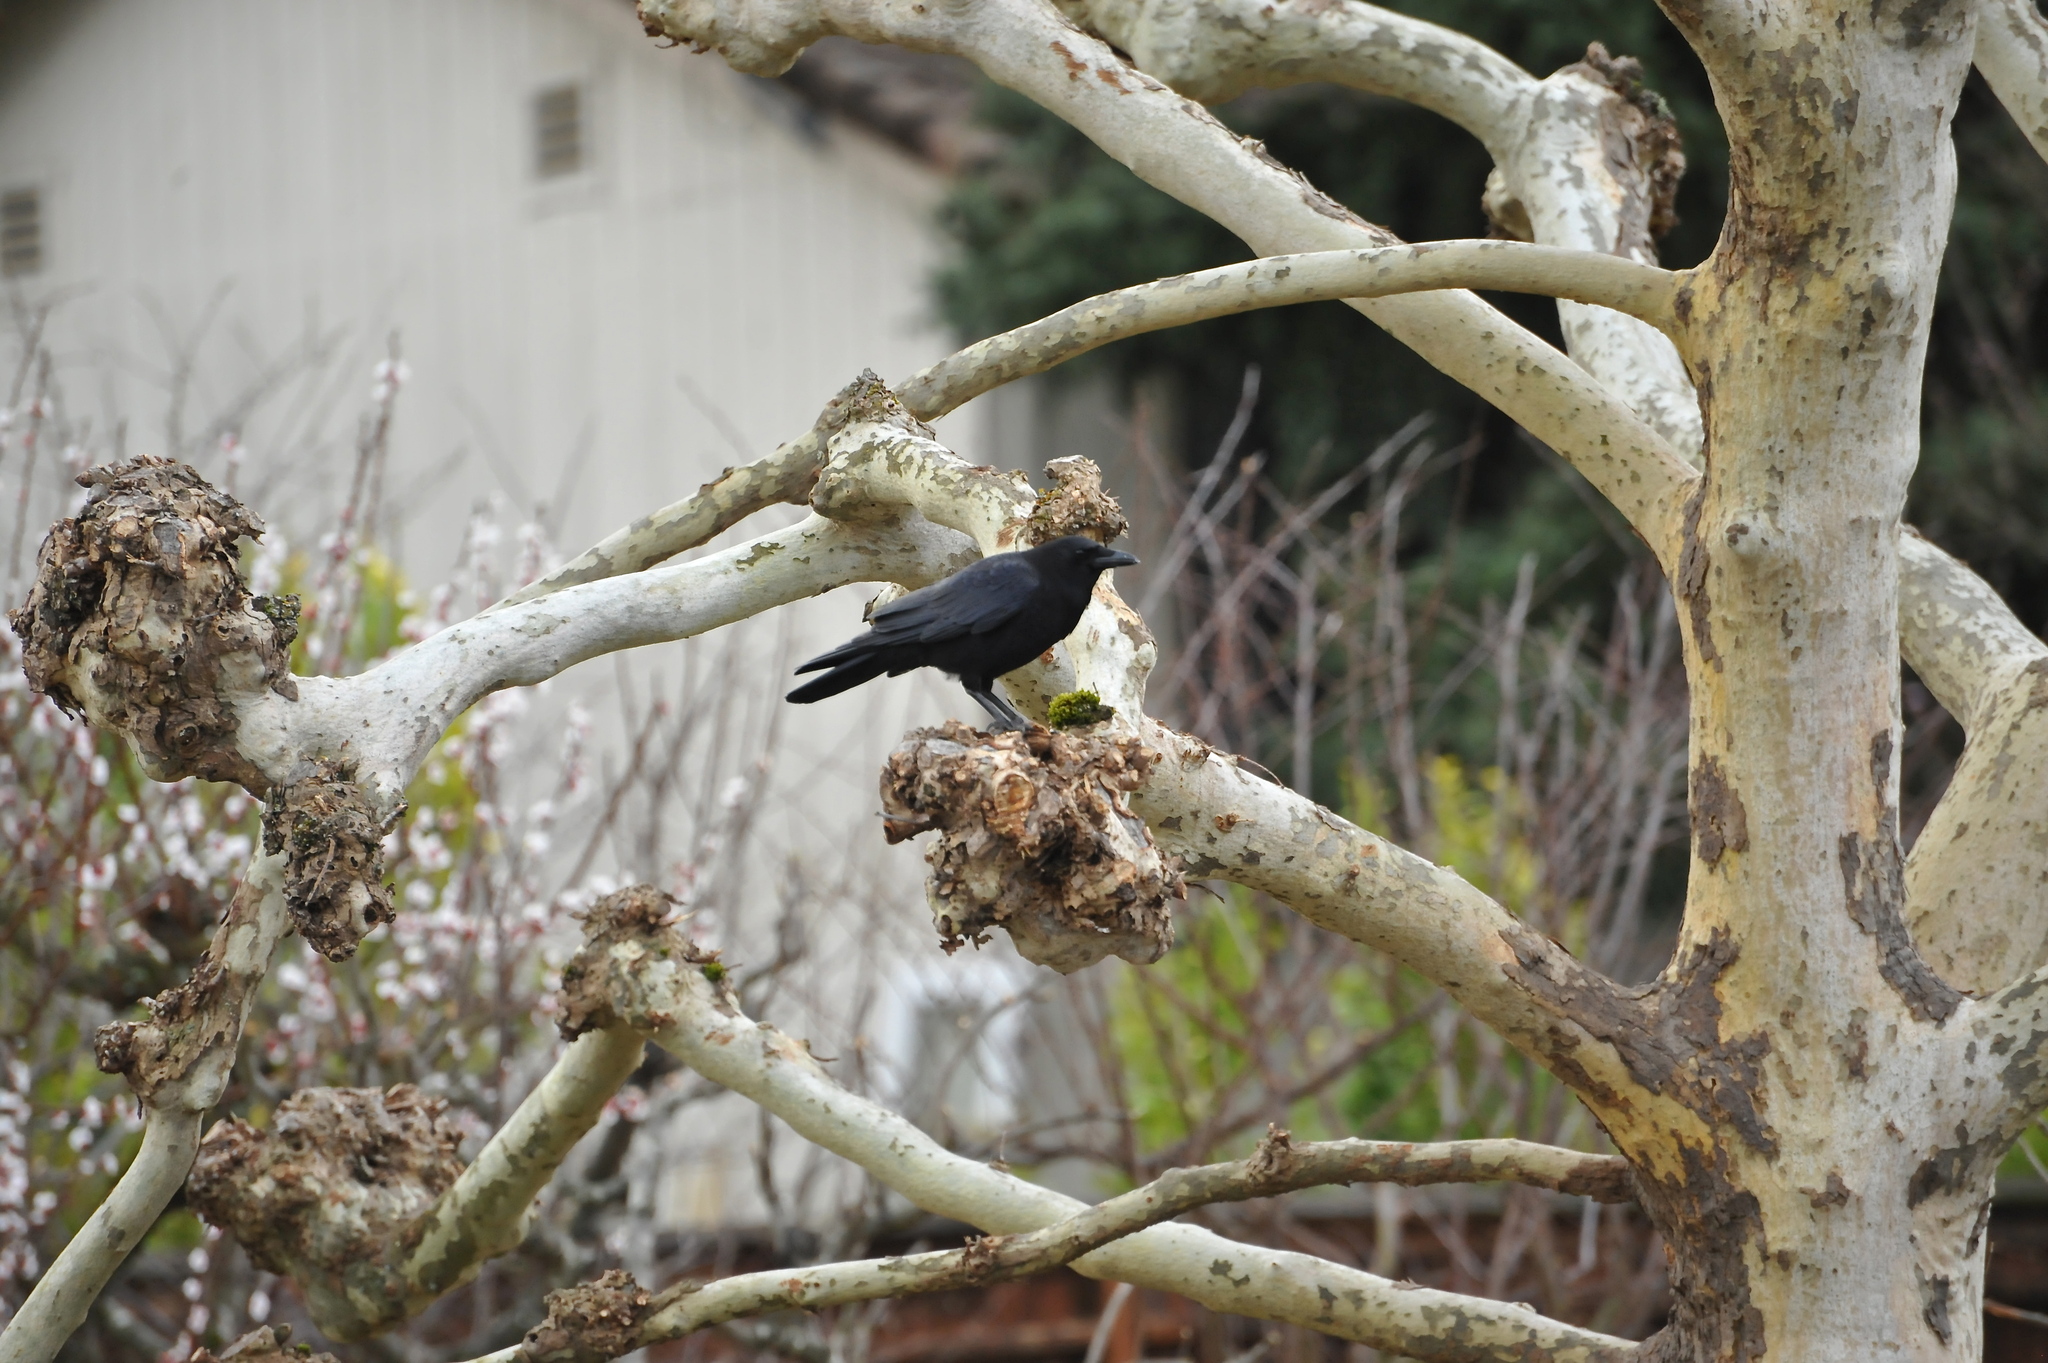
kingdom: Animalia
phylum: Chordata
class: Aves
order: Passeriformes
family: Corvidae
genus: Corvus
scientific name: Corvus brachyrhynchos
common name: American crow
